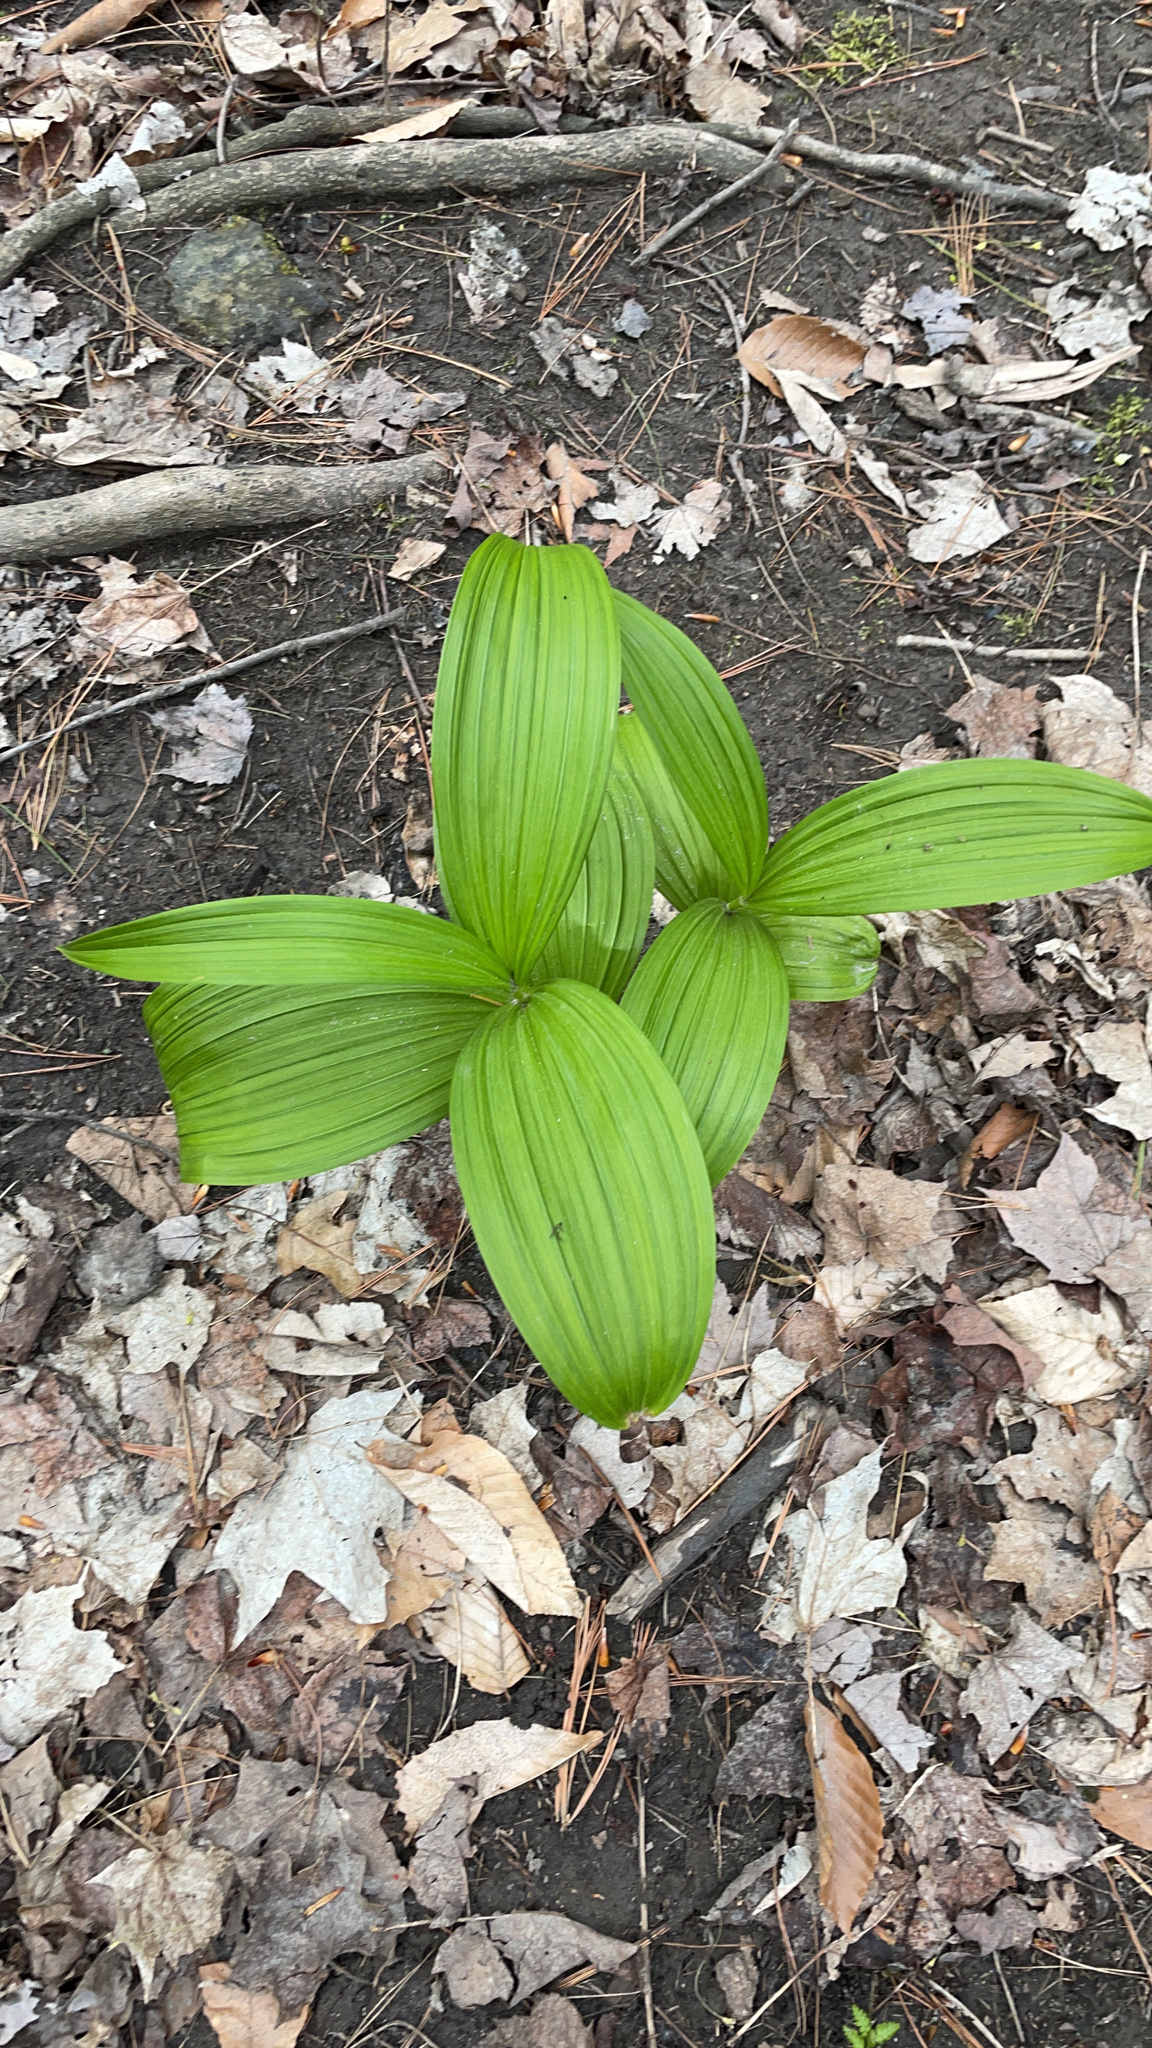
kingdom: Plantae
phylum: Tracheophyta
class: Liliopsida
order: Liliales
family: Melanthiaceae
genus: Veratrum
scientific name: Veratrum viride
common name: American false hellebore
